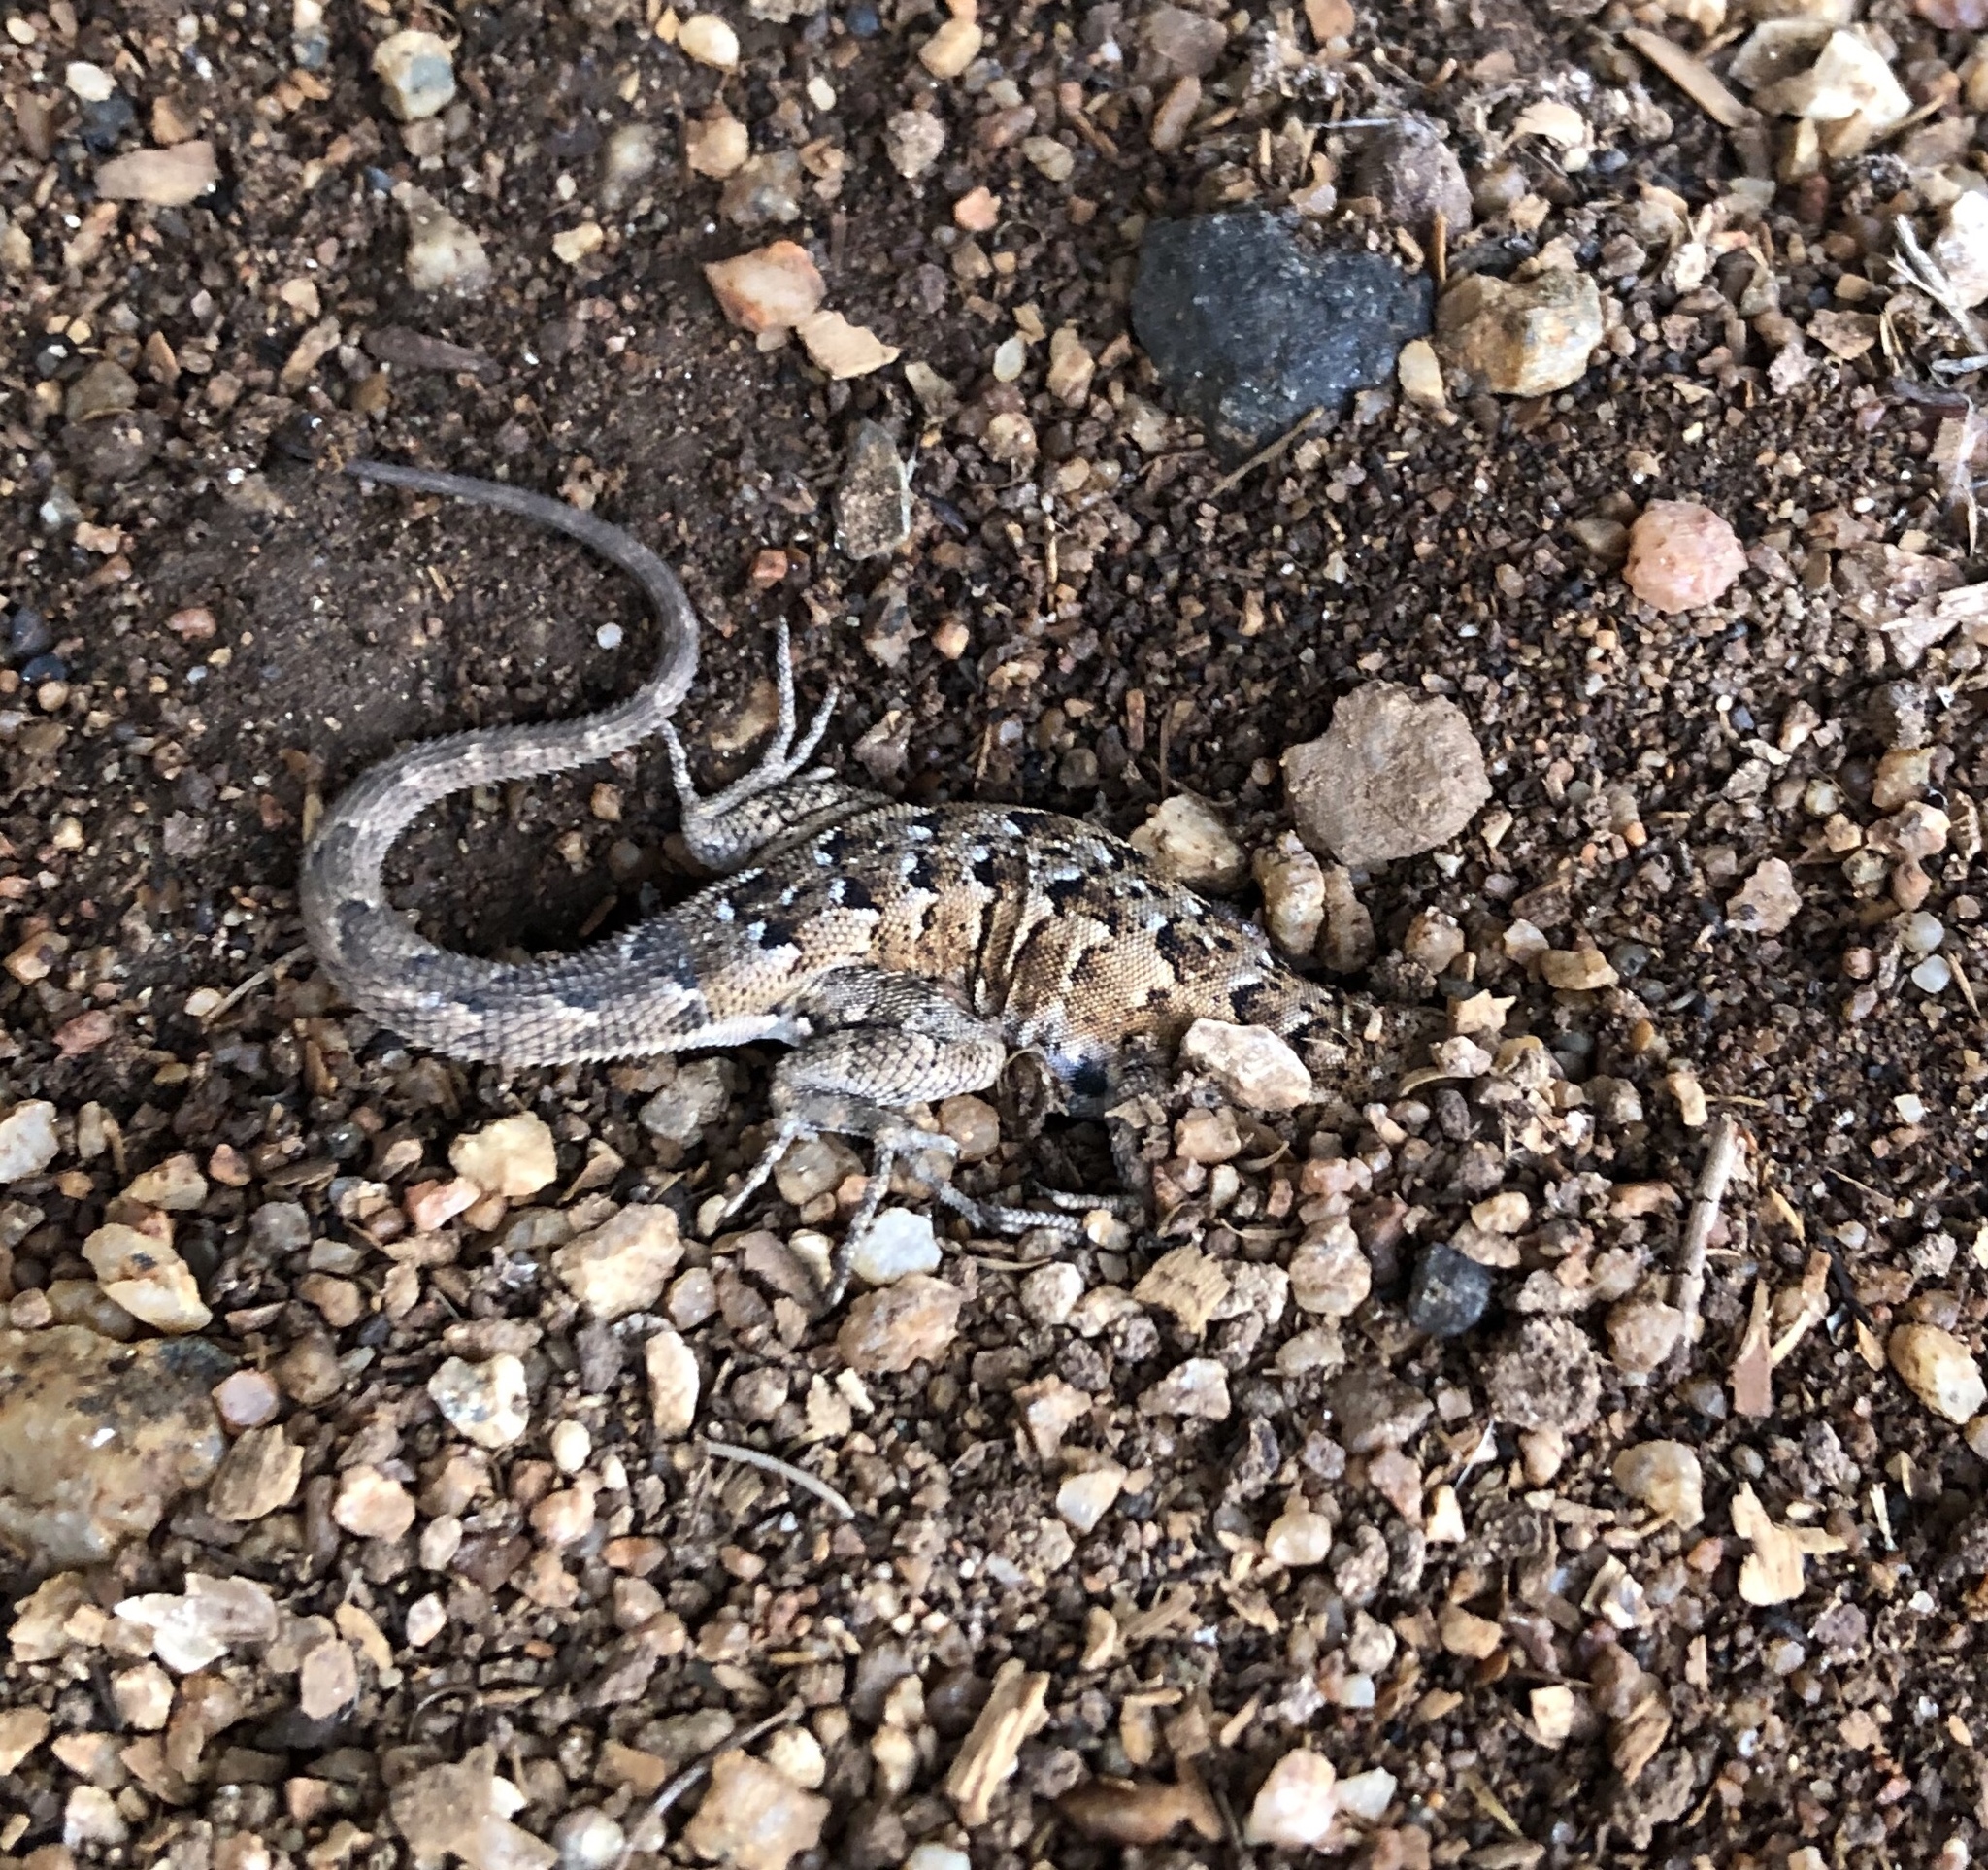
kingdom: Animalia
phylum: Chordata
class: Squamata
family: Phrynosomatidae
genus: Uta
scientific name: Uta stansburiana
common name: Side-blotched lizard
